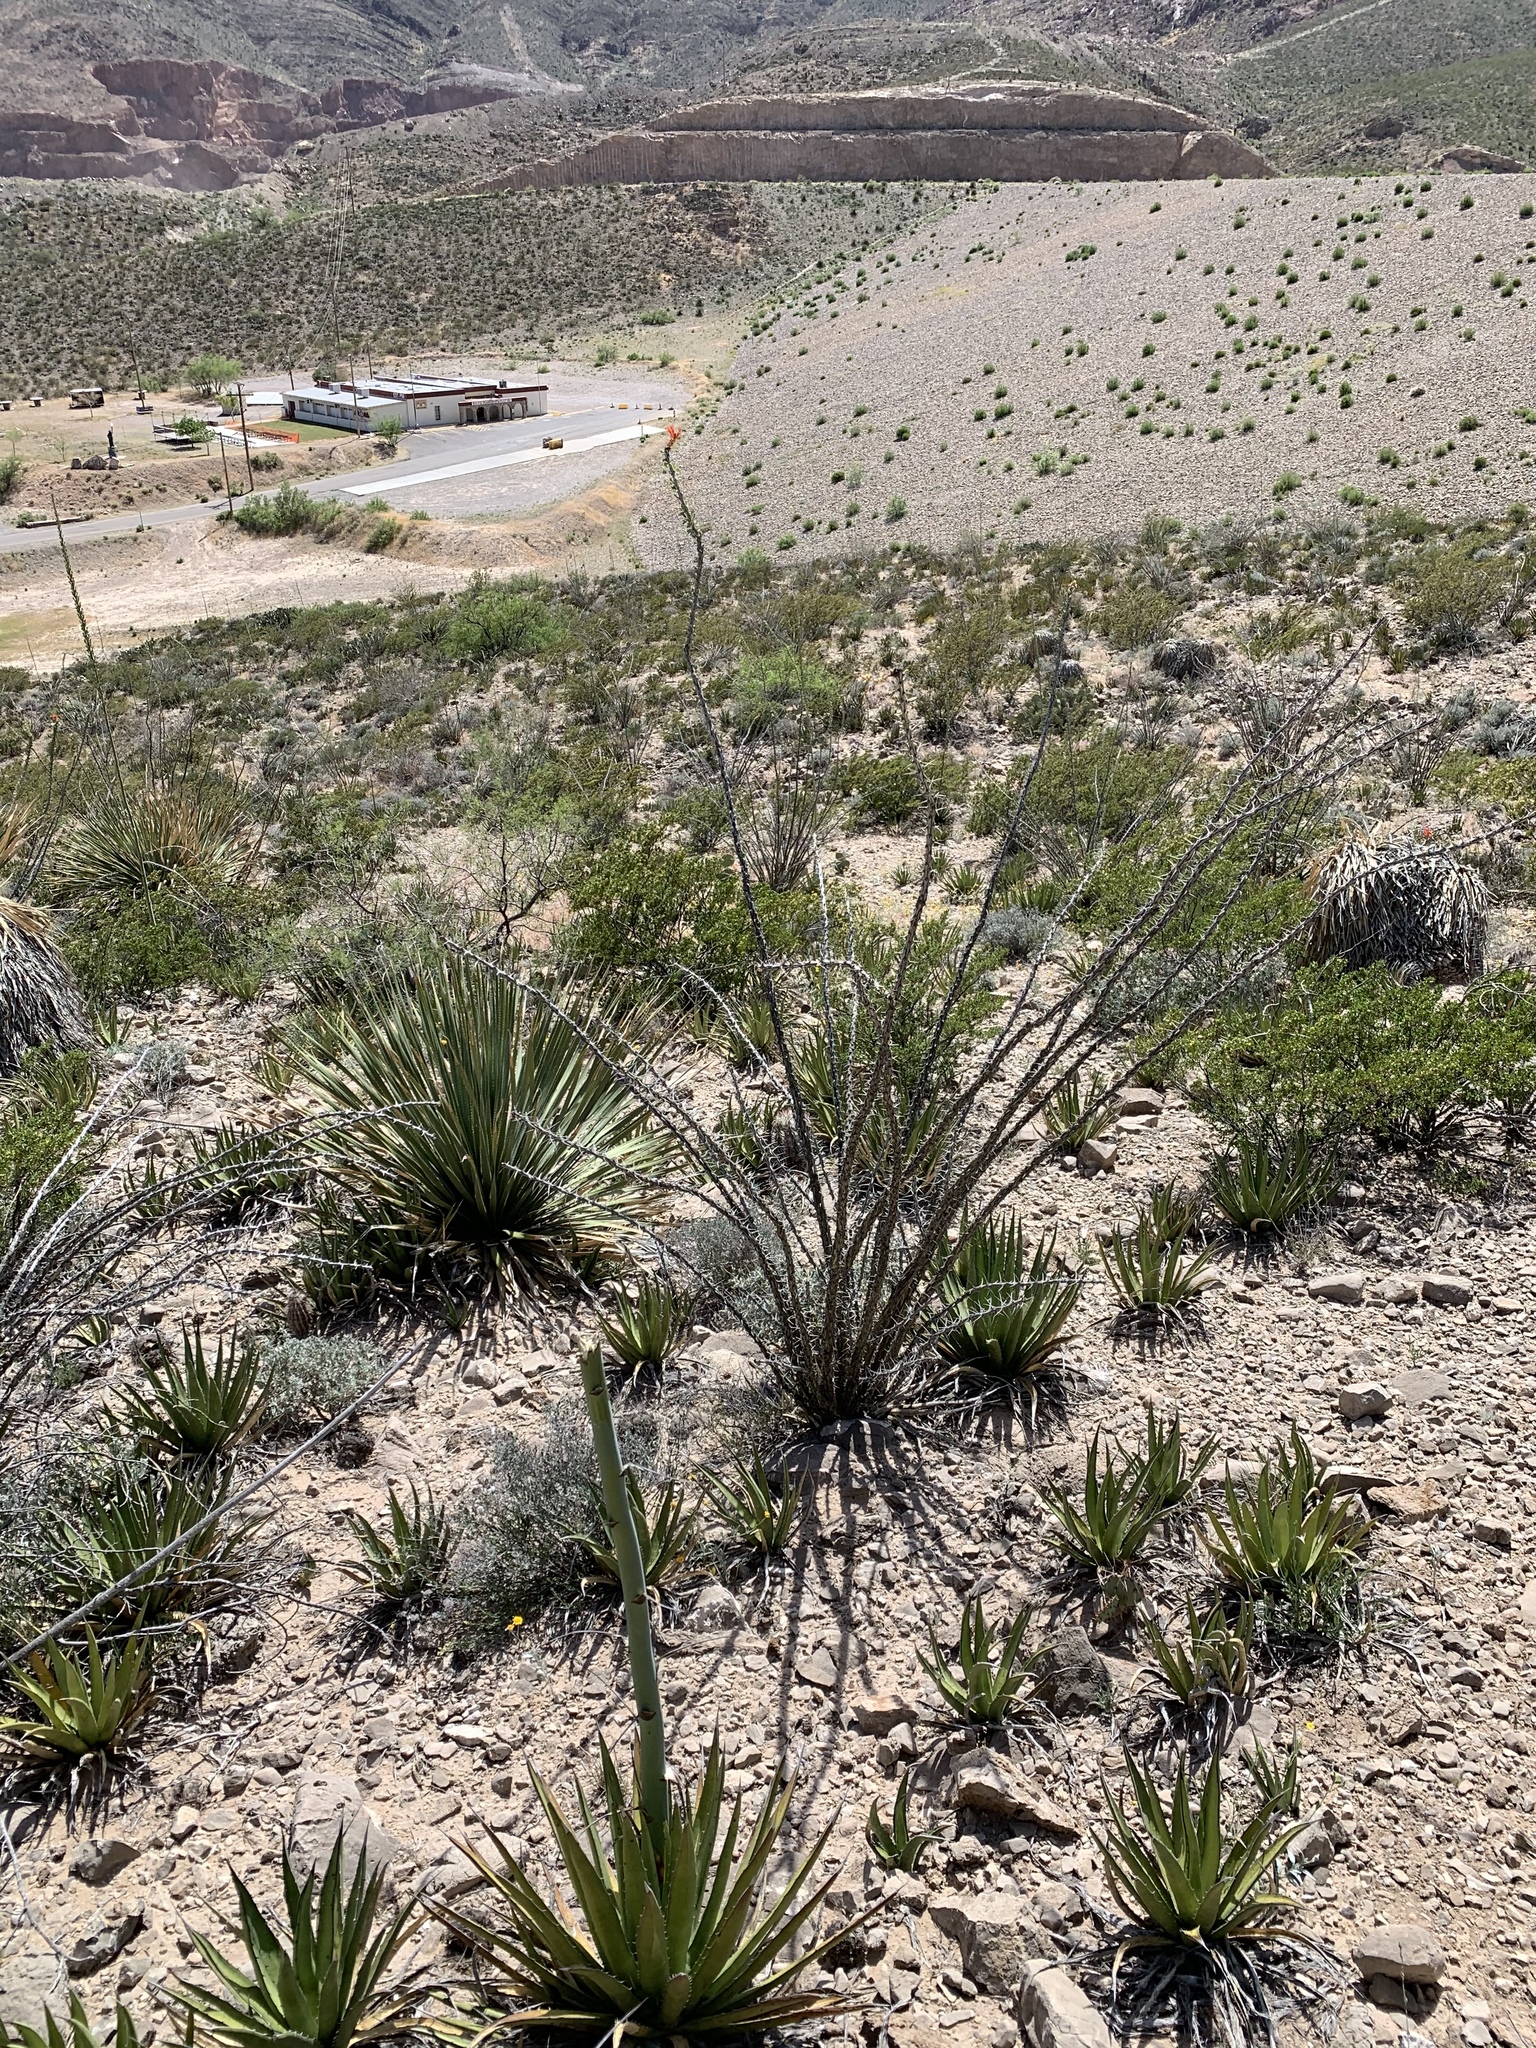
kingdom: Plantae
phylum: Tracheophyta
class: Magnoliopsida
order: Ericales
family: Fouquieriaceae
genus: Fouquieria
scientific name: Fouquieria splendens
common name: Vine-cactus
